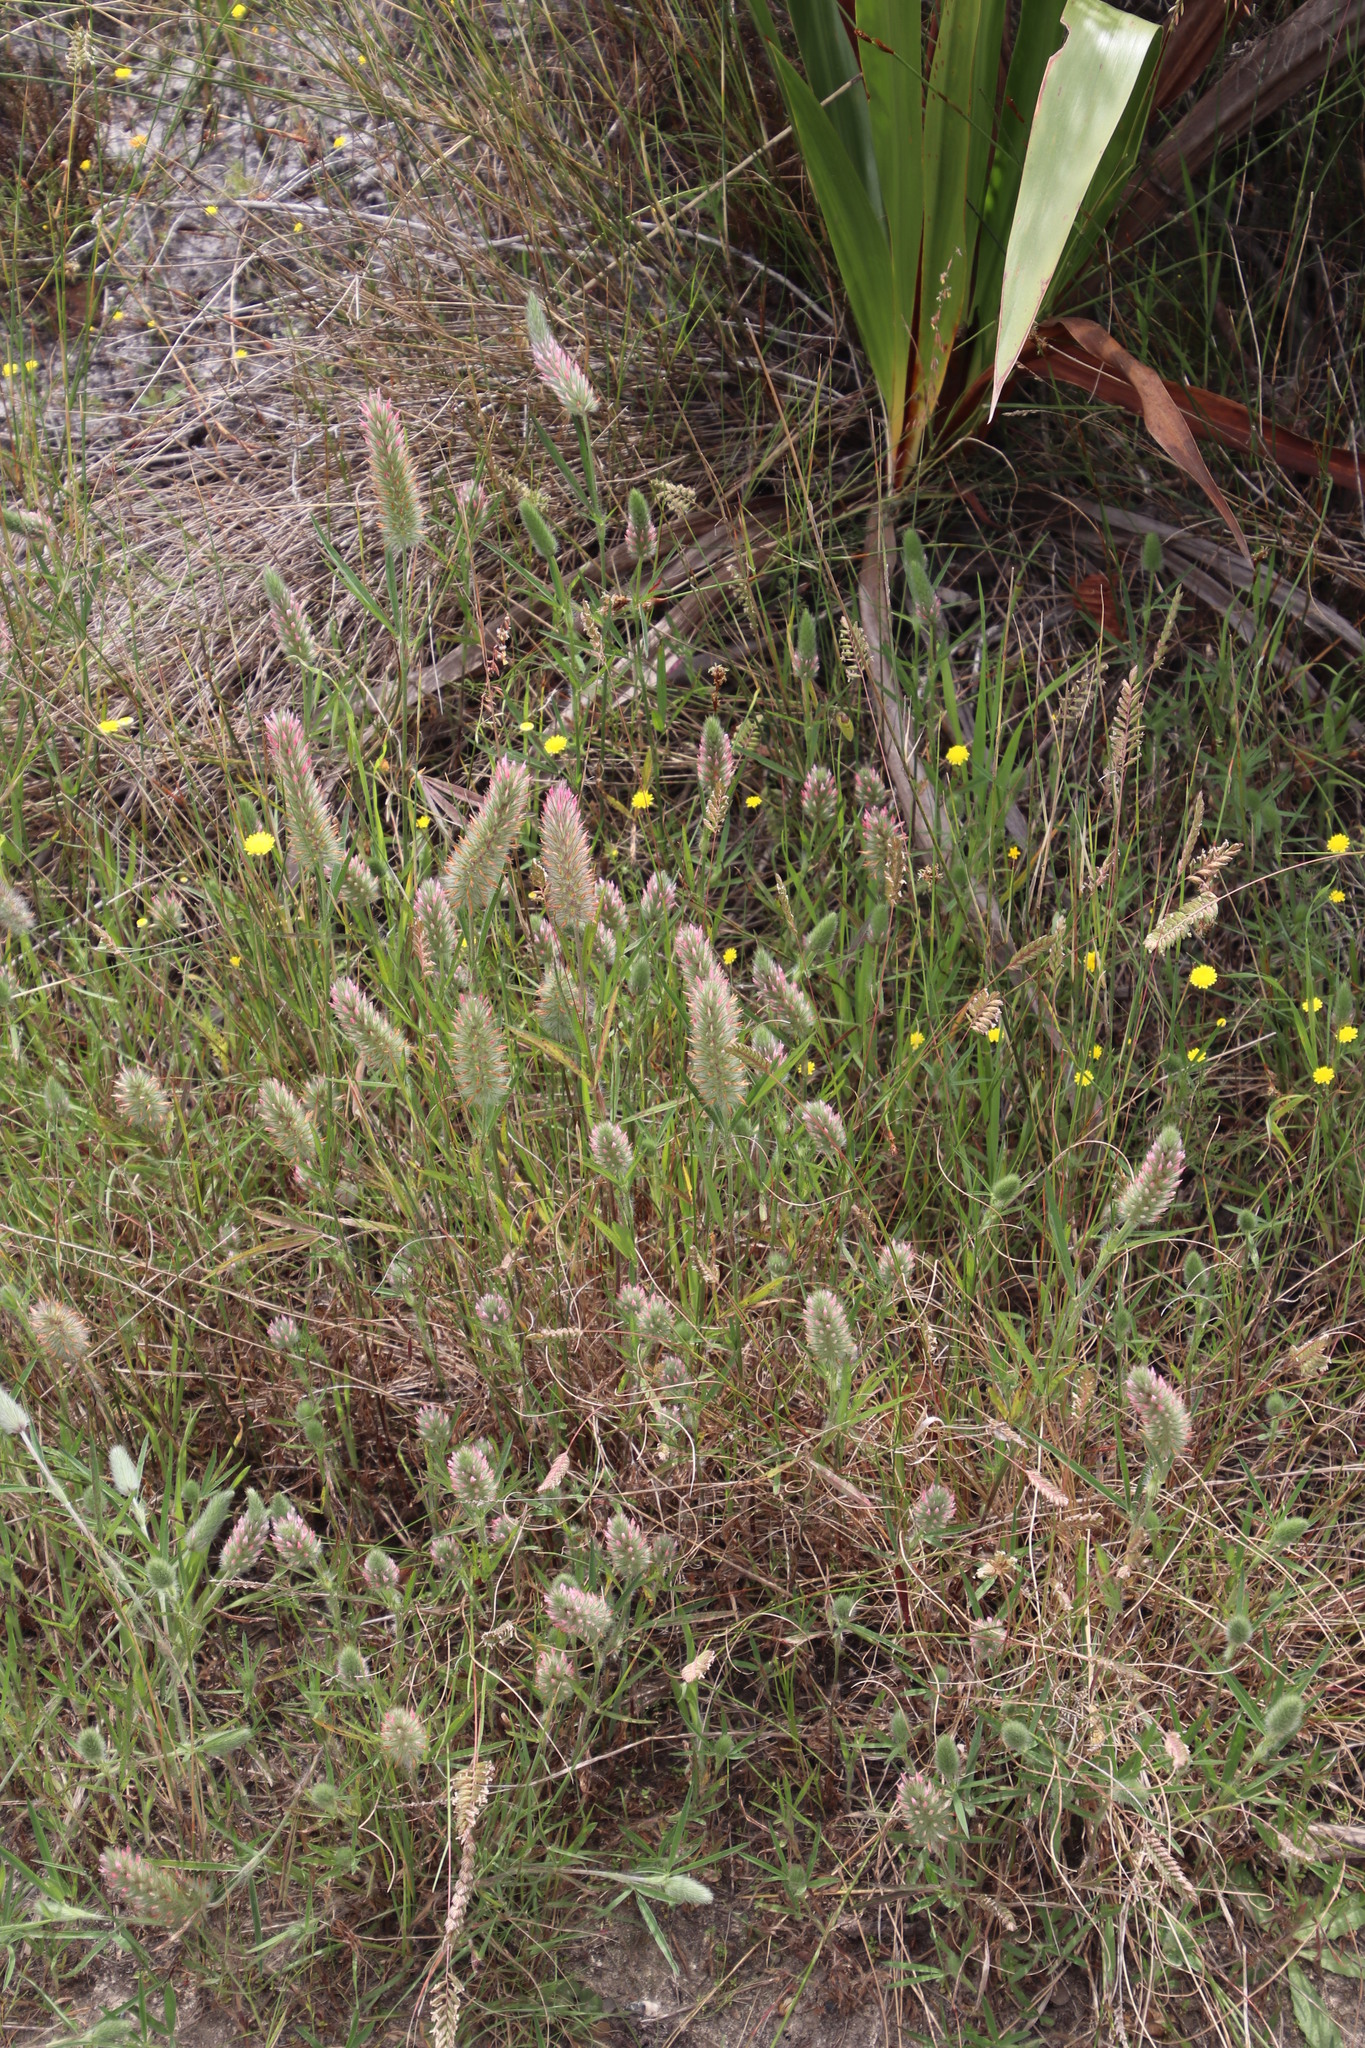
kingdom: Plantae
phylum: Tracheophyta
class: Magnoliopsida
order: Fabales
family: Fabaceae
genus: Trifolium
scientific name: Trifolium angustifolium
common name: Narrow clover
